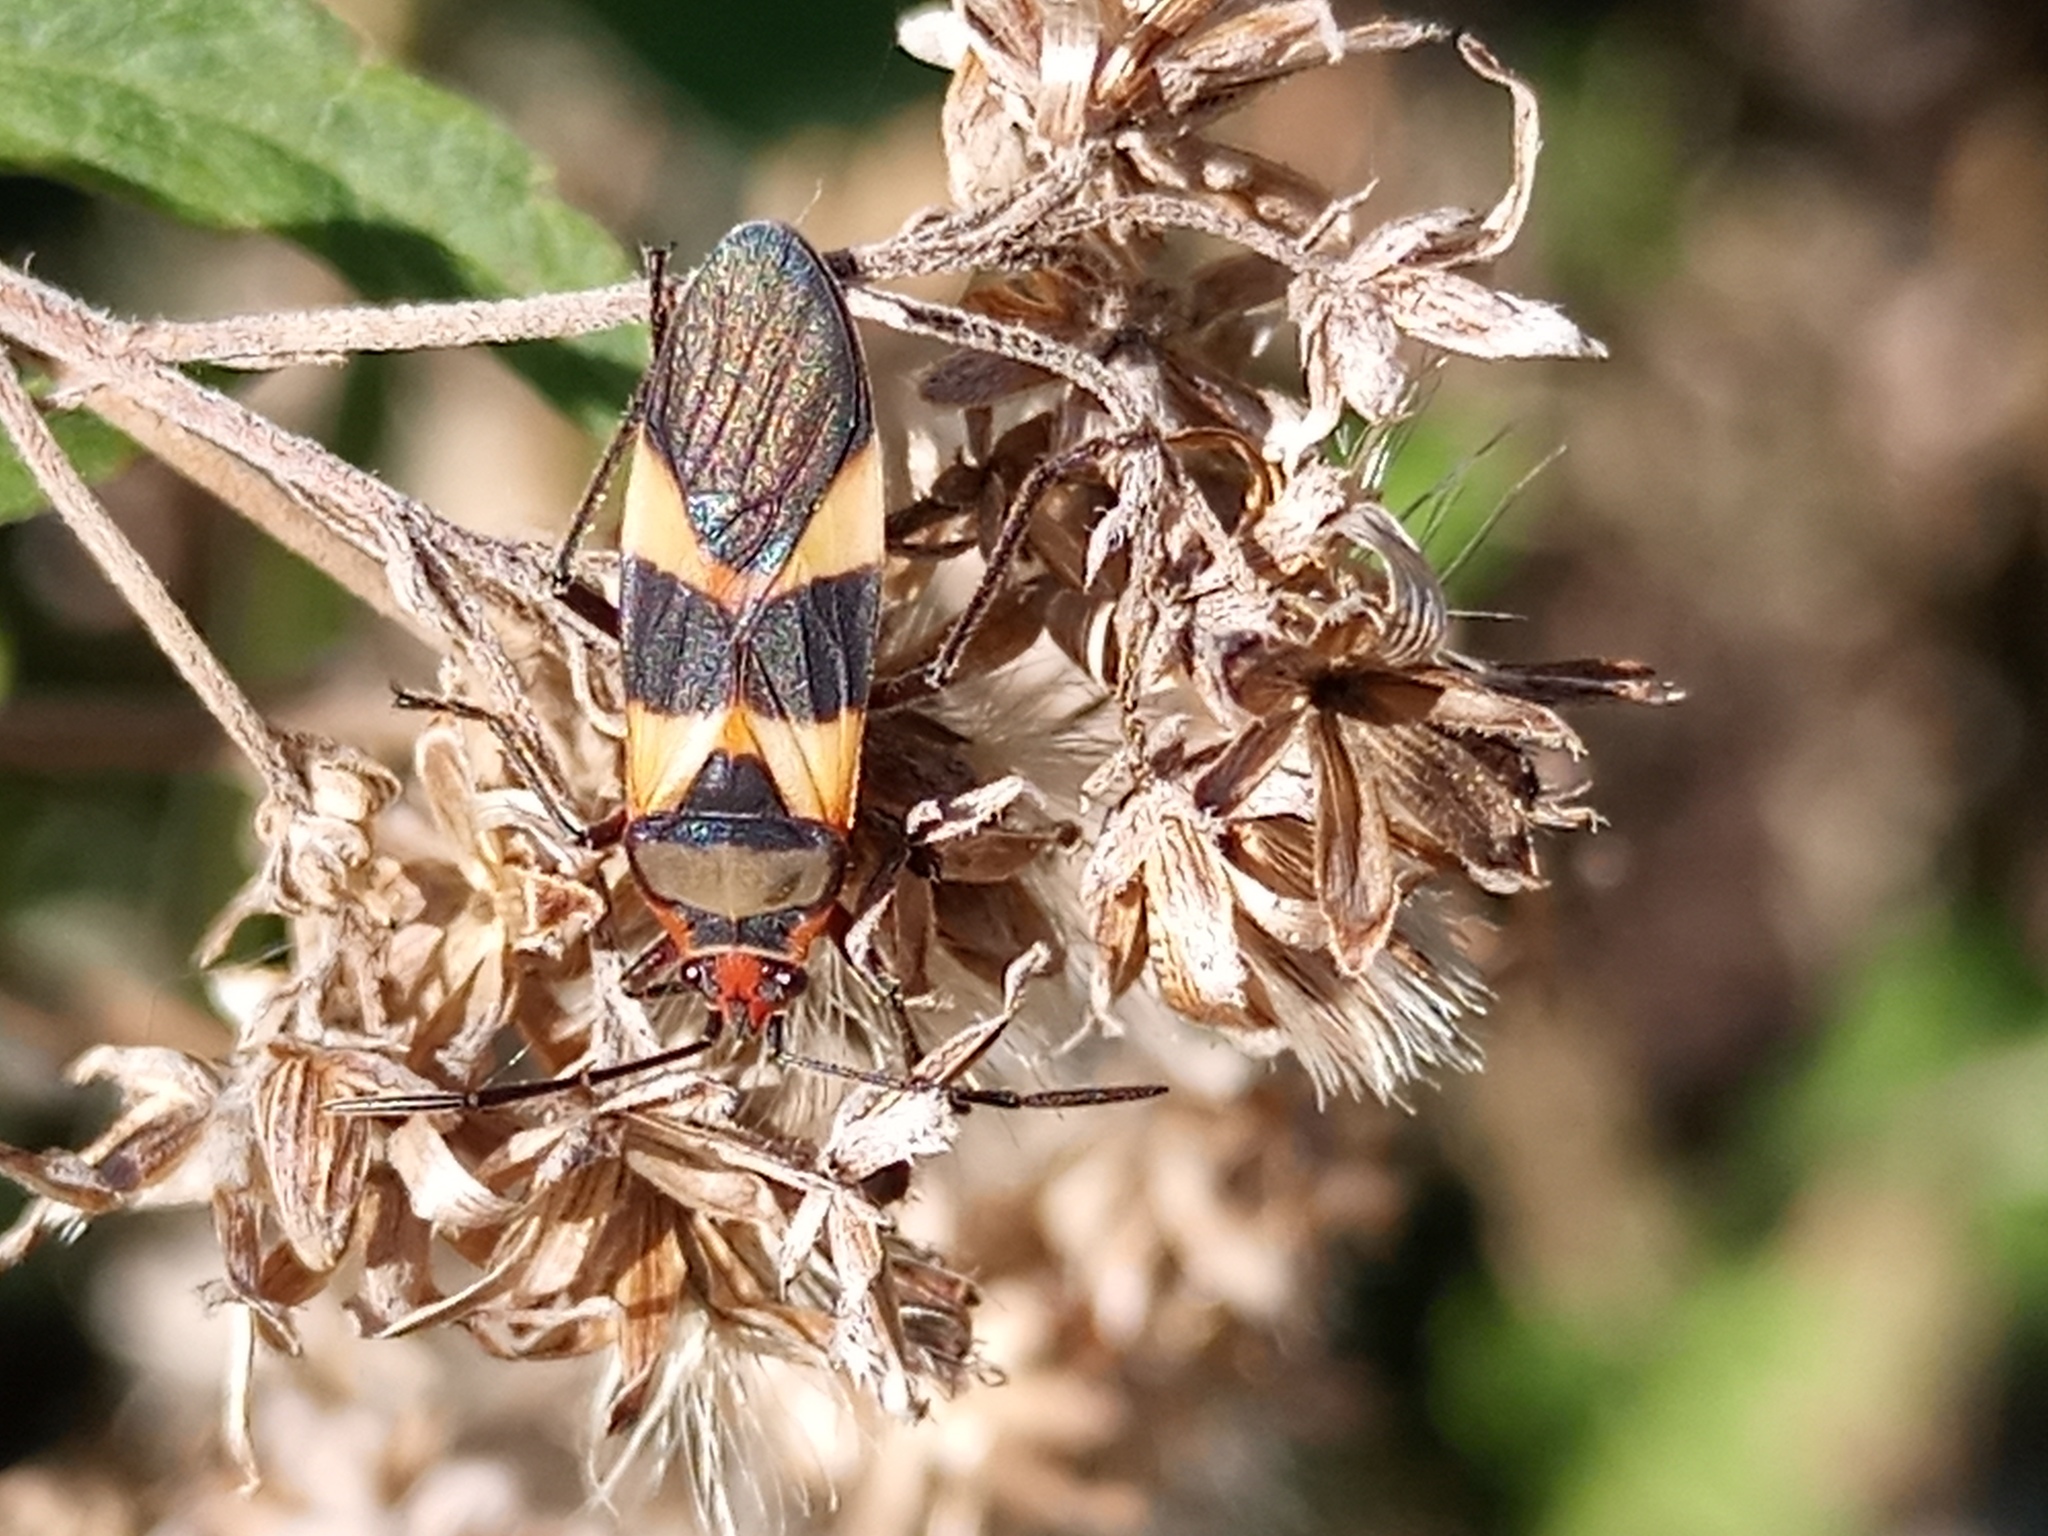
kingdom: Animalia
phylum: Arthropoda
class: Insecta
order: Hemiptera
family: Lygaeidae
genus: Oncopeltus
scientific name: Oncopeltus unifasciatellus
